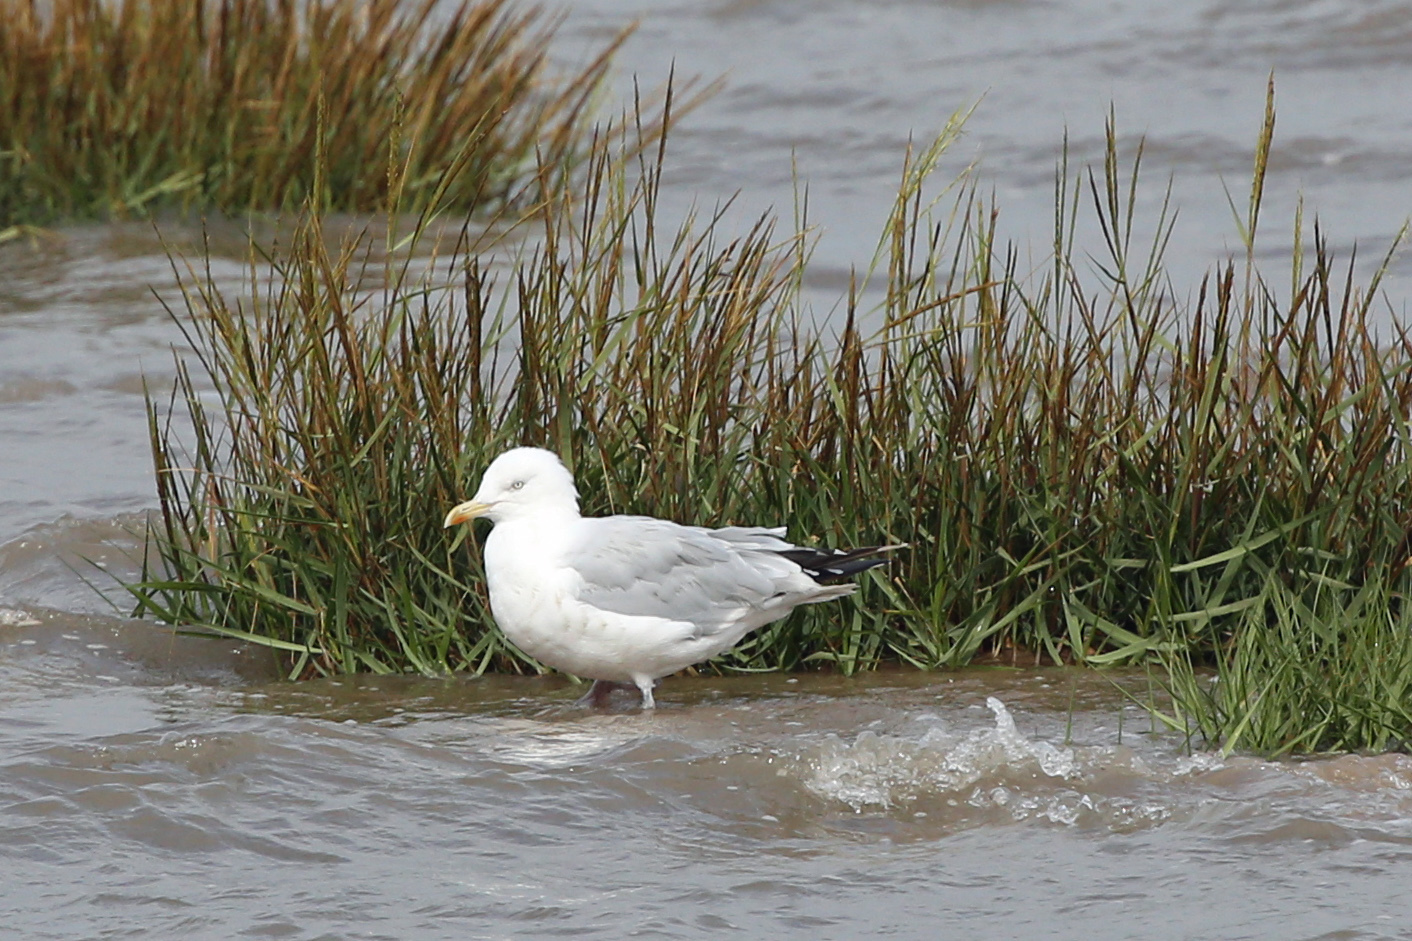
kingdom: Animalia
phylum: Chordata
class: Aves
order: Charadriiformes
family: Laridae
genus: Larus
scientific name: Larus argentatus
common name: Herring gull
